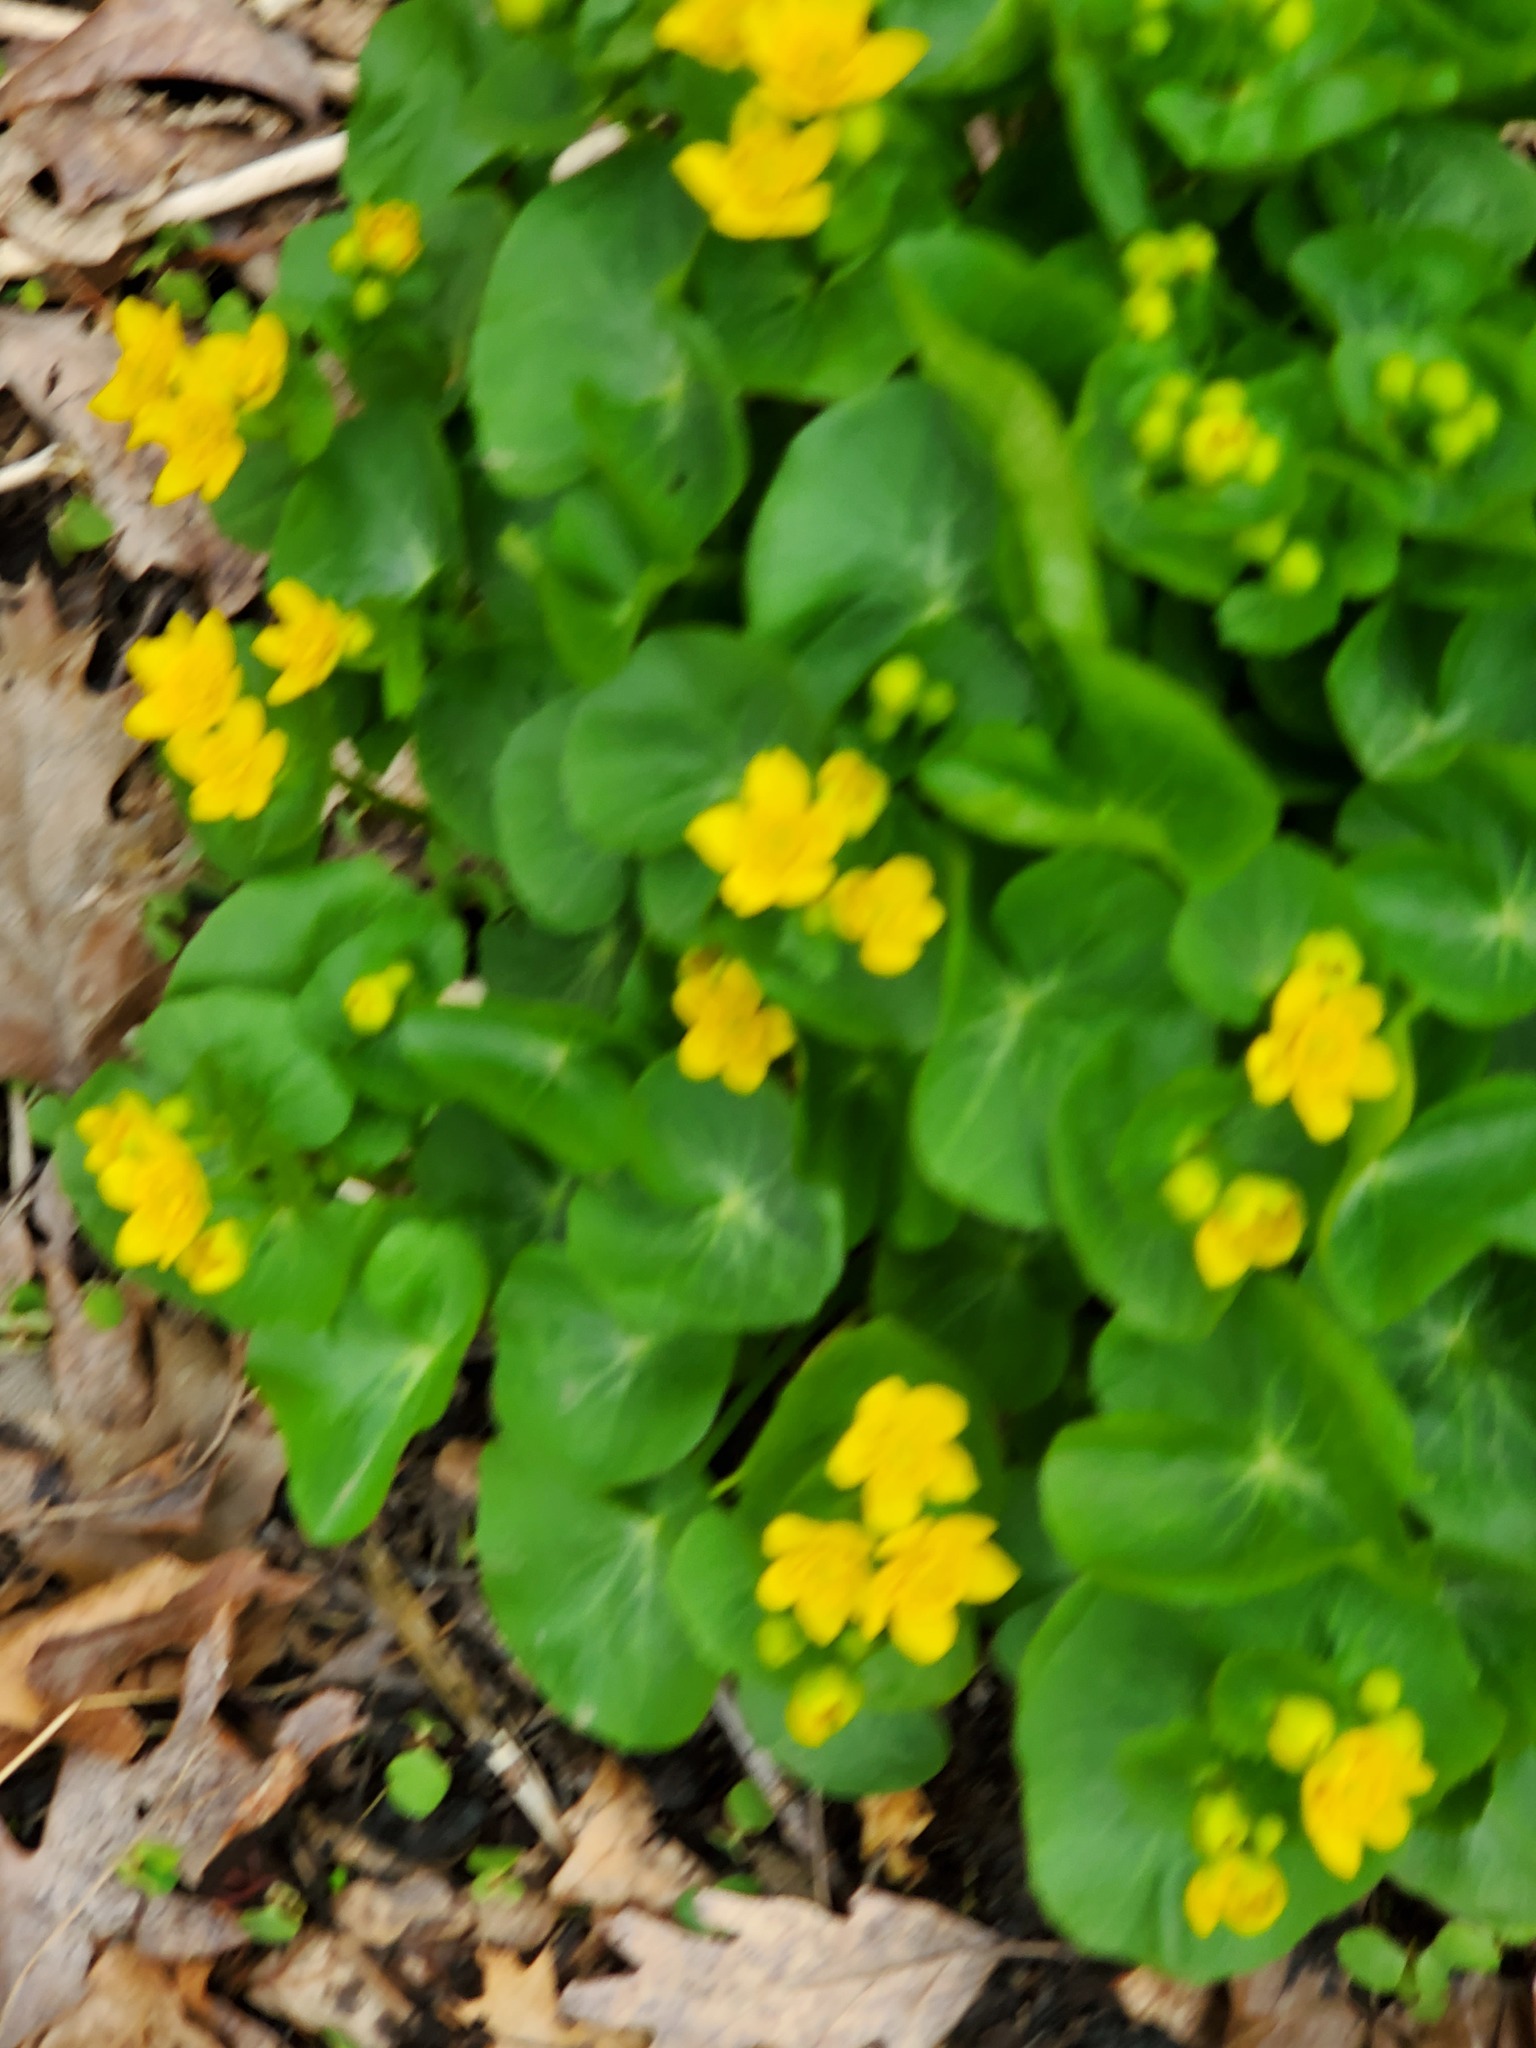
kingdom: Plantae
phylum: Tracheophyta
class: Magnoliopsida
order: Ranunculales
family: Ranunculaceae
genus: Caltha
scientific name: Caltha palustris
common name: Marsh marigold
